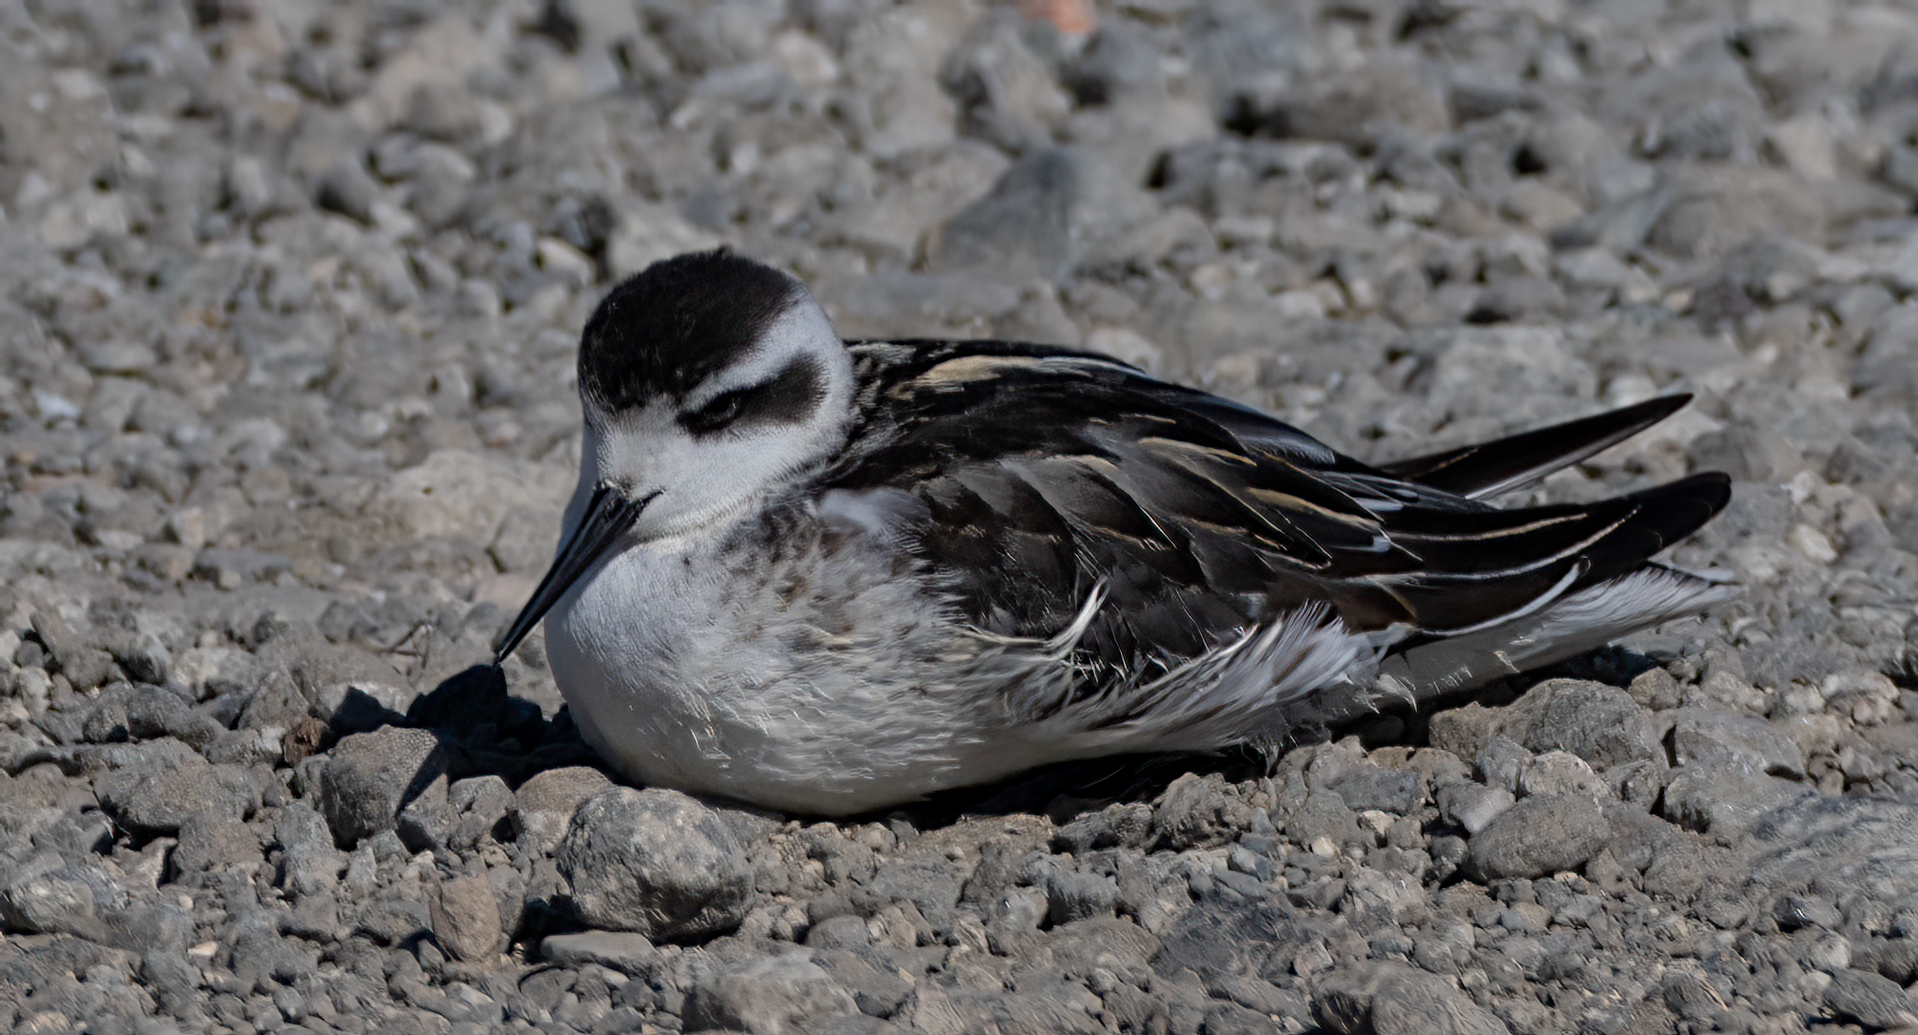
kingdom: Animalia
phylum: Chordata
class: Aves
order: Charadriiformes
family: Scolopacidae
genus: Phalaropus
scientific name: Phalaropus lobatus
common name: Red-necked phalarope
